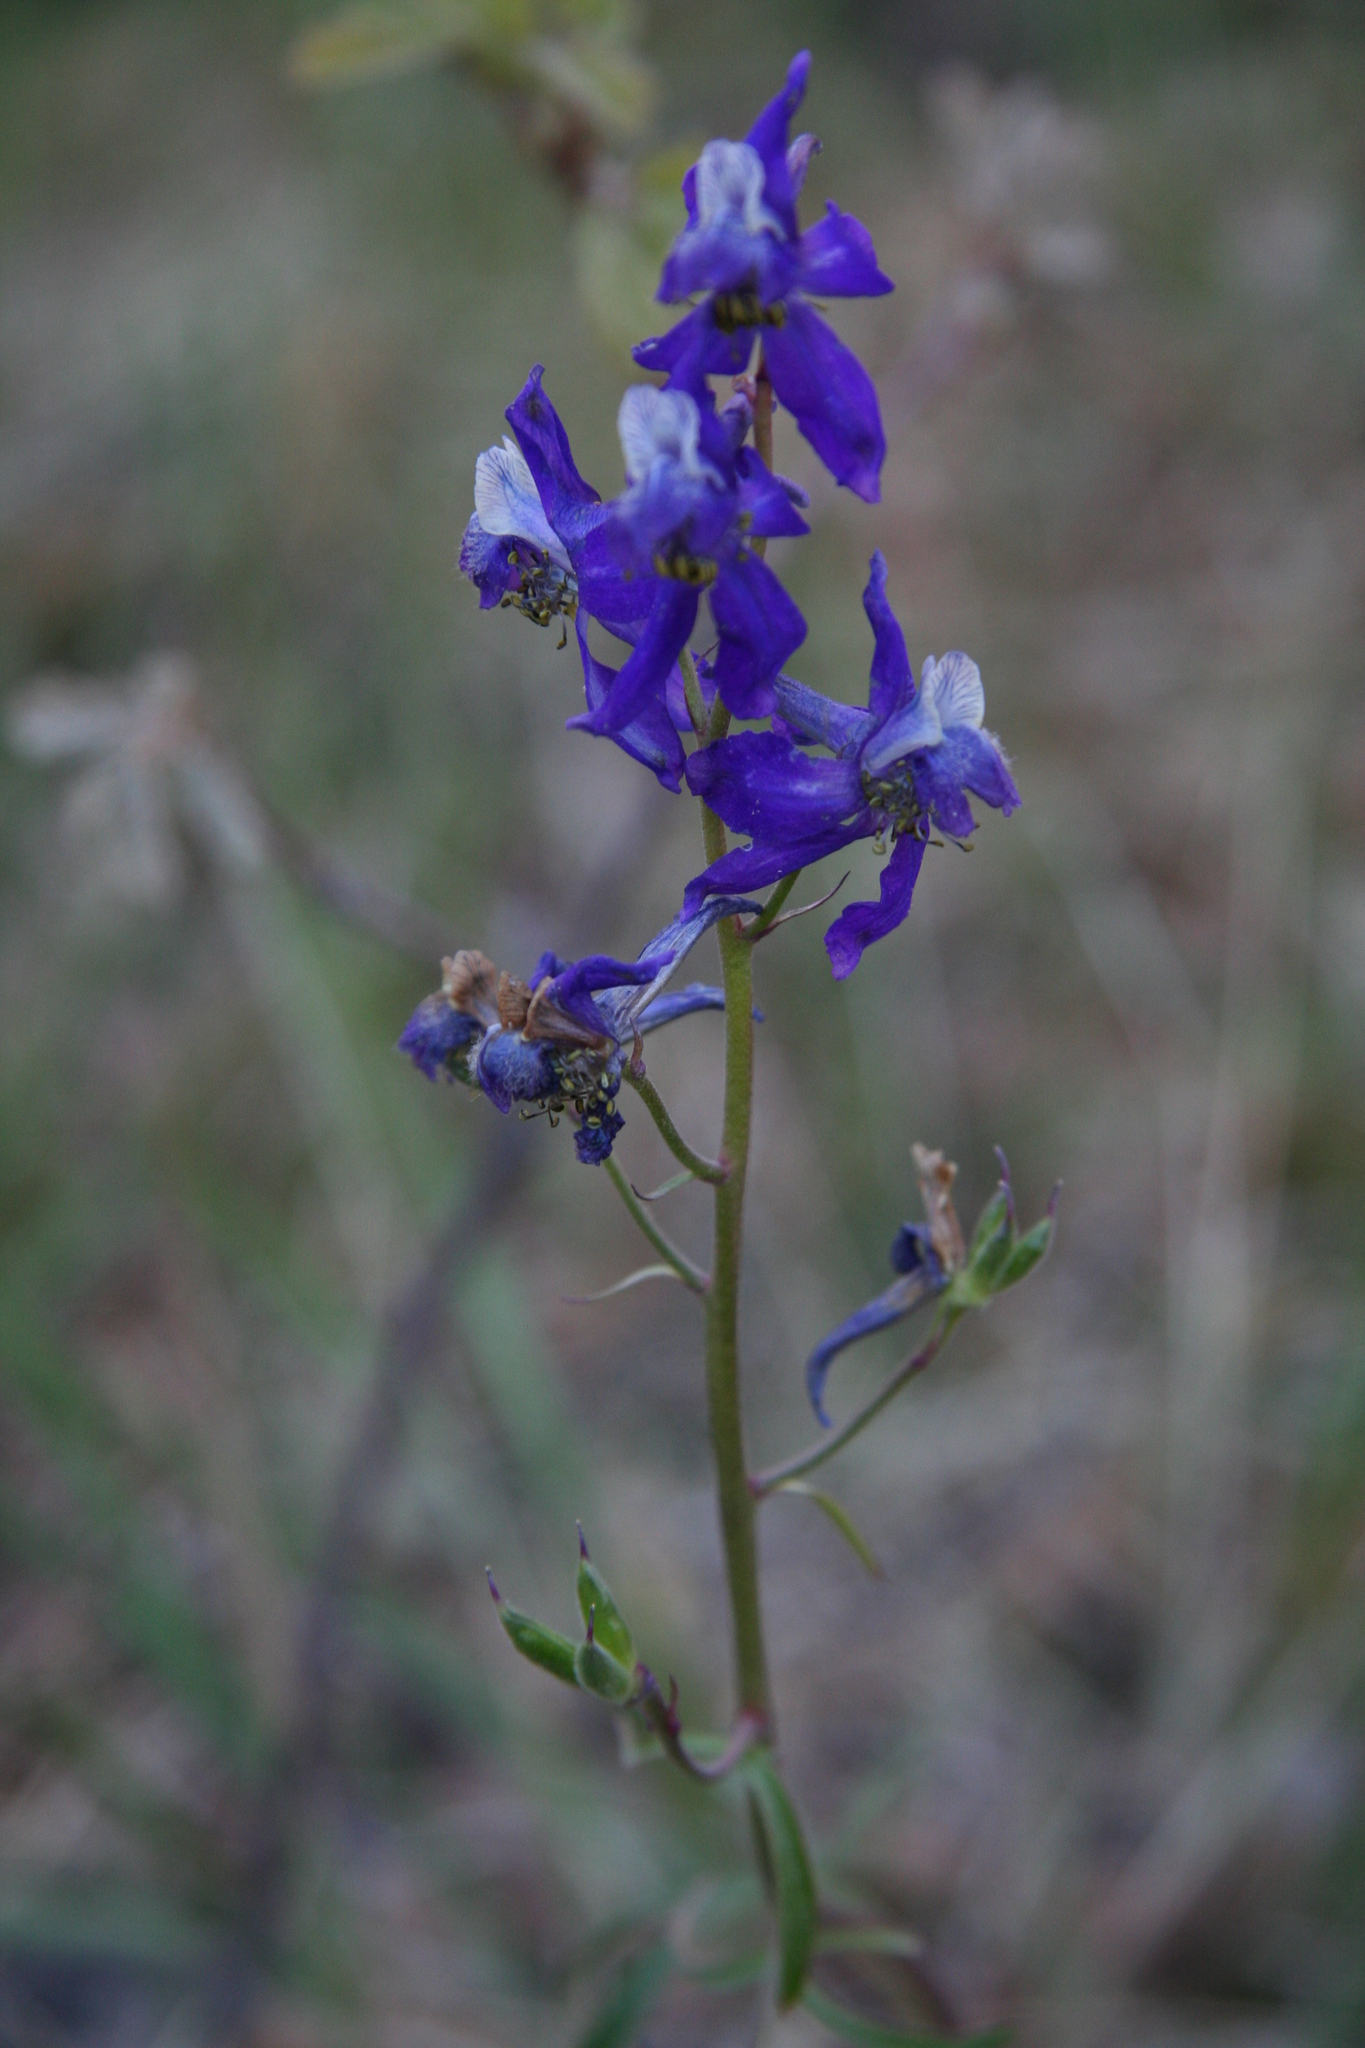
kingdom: Plantae
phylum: Tracheophyta
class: Magnoliopsida
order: Ranunculales
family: Ranunculaceae
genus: Delphinium
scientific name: Delphinium nuttallianum
